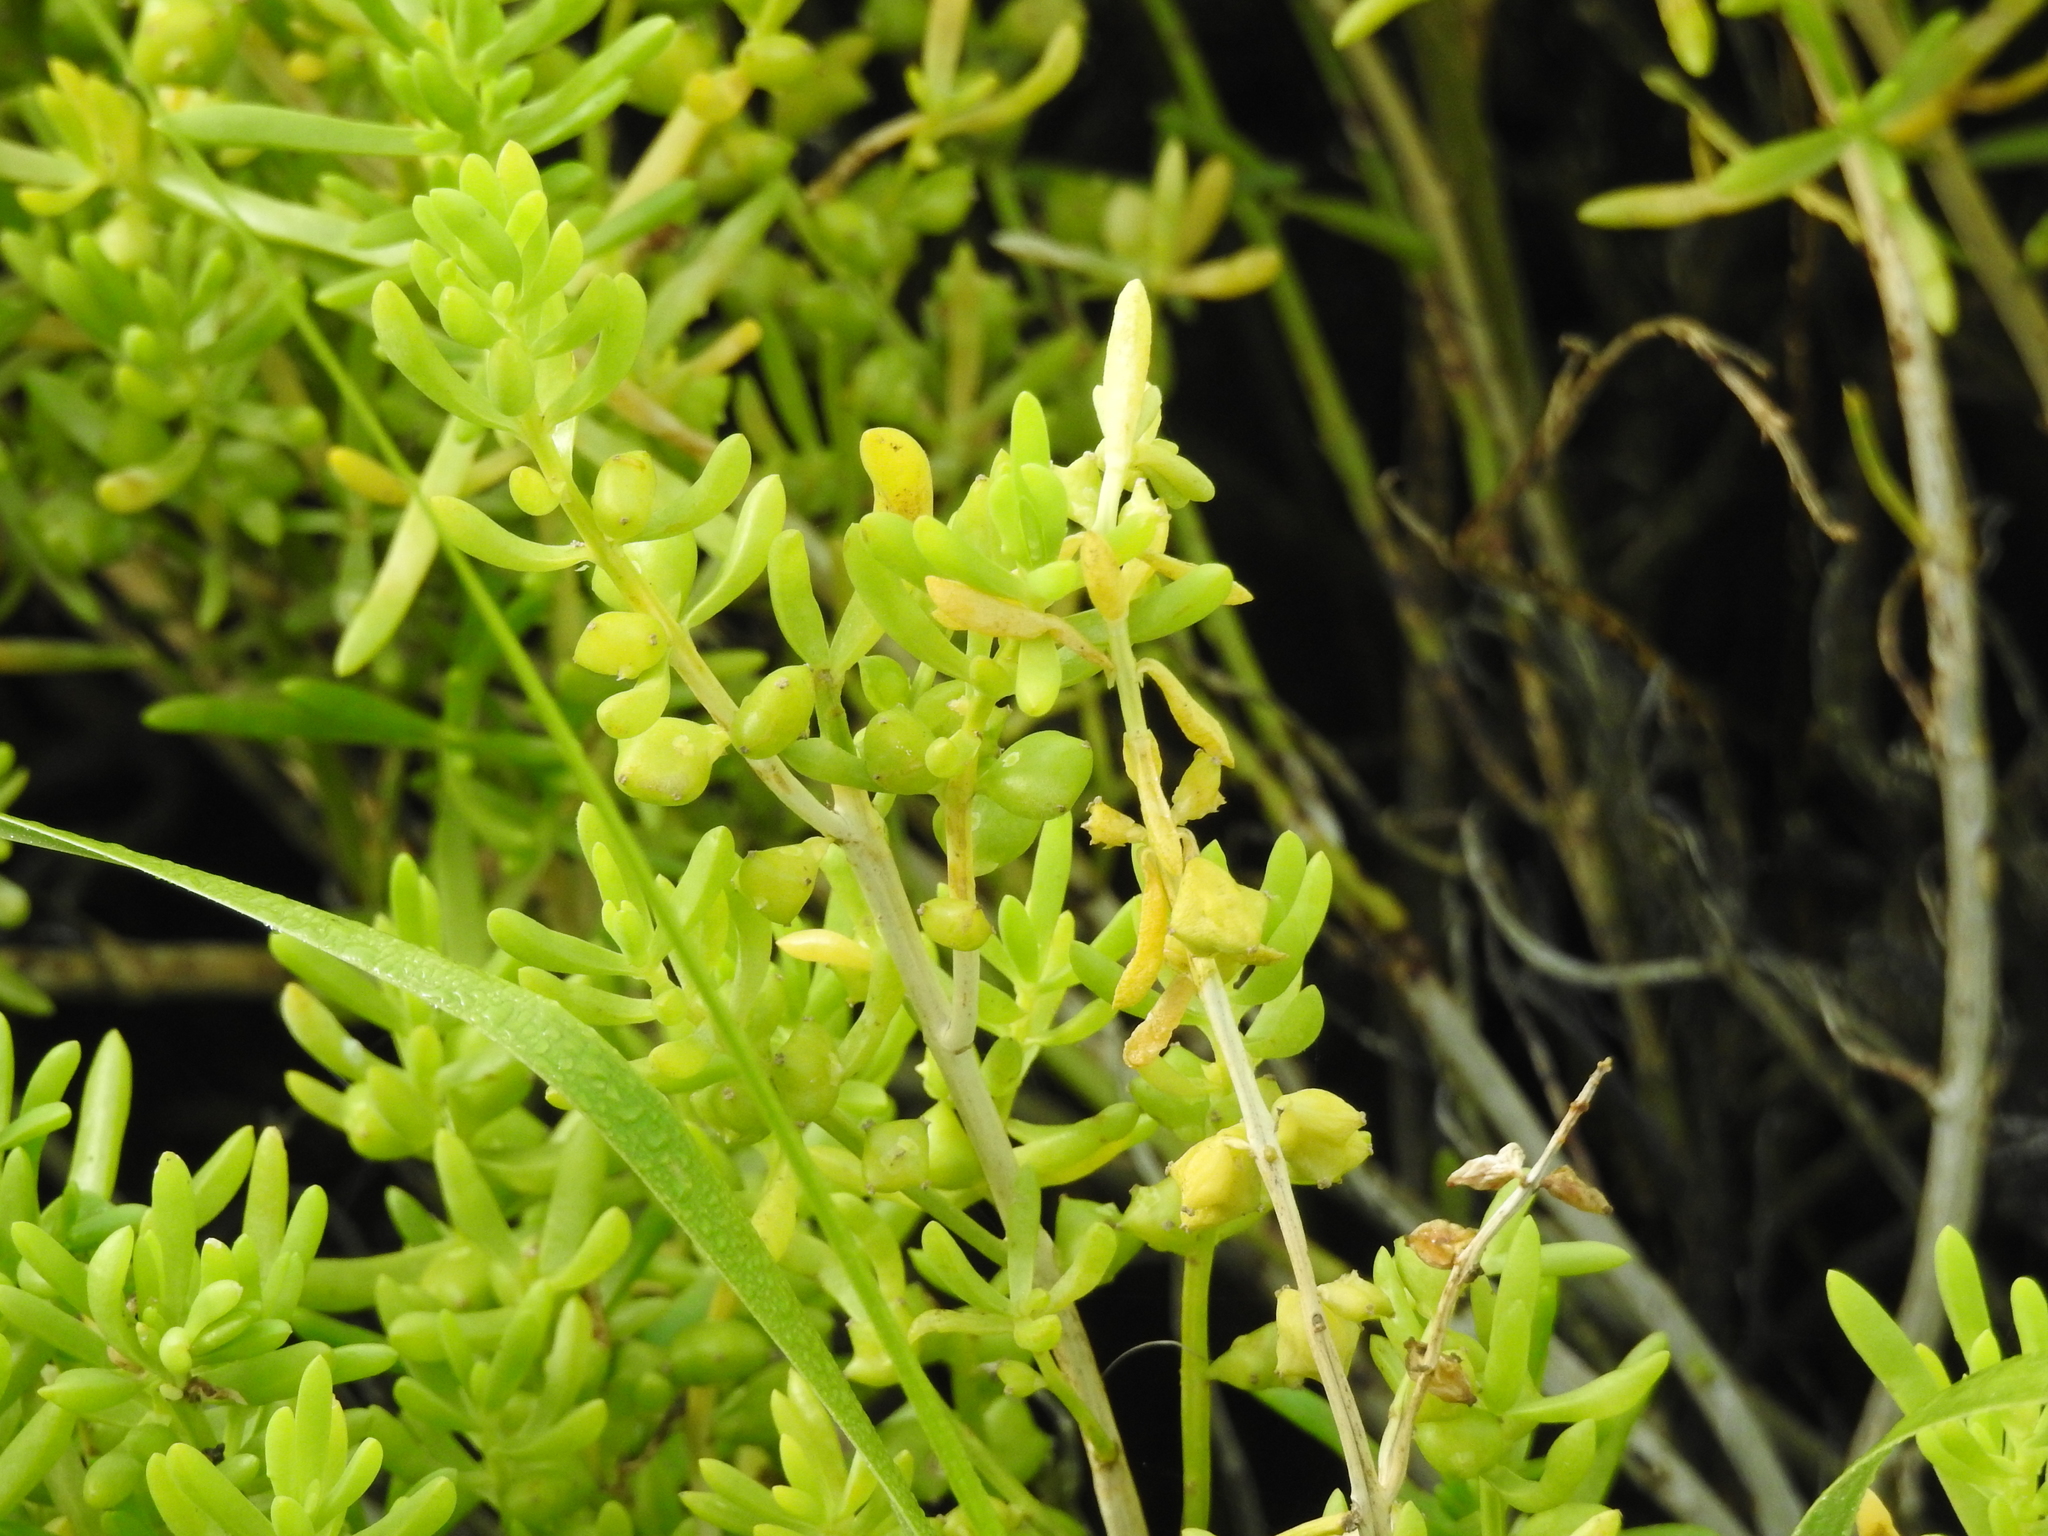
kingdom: Plantae
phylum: Tracheophyta
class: Magnoliopsida
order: Brassicales
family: Bataceae
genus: Batis
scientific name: Batis maritima
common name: Turtleweed
